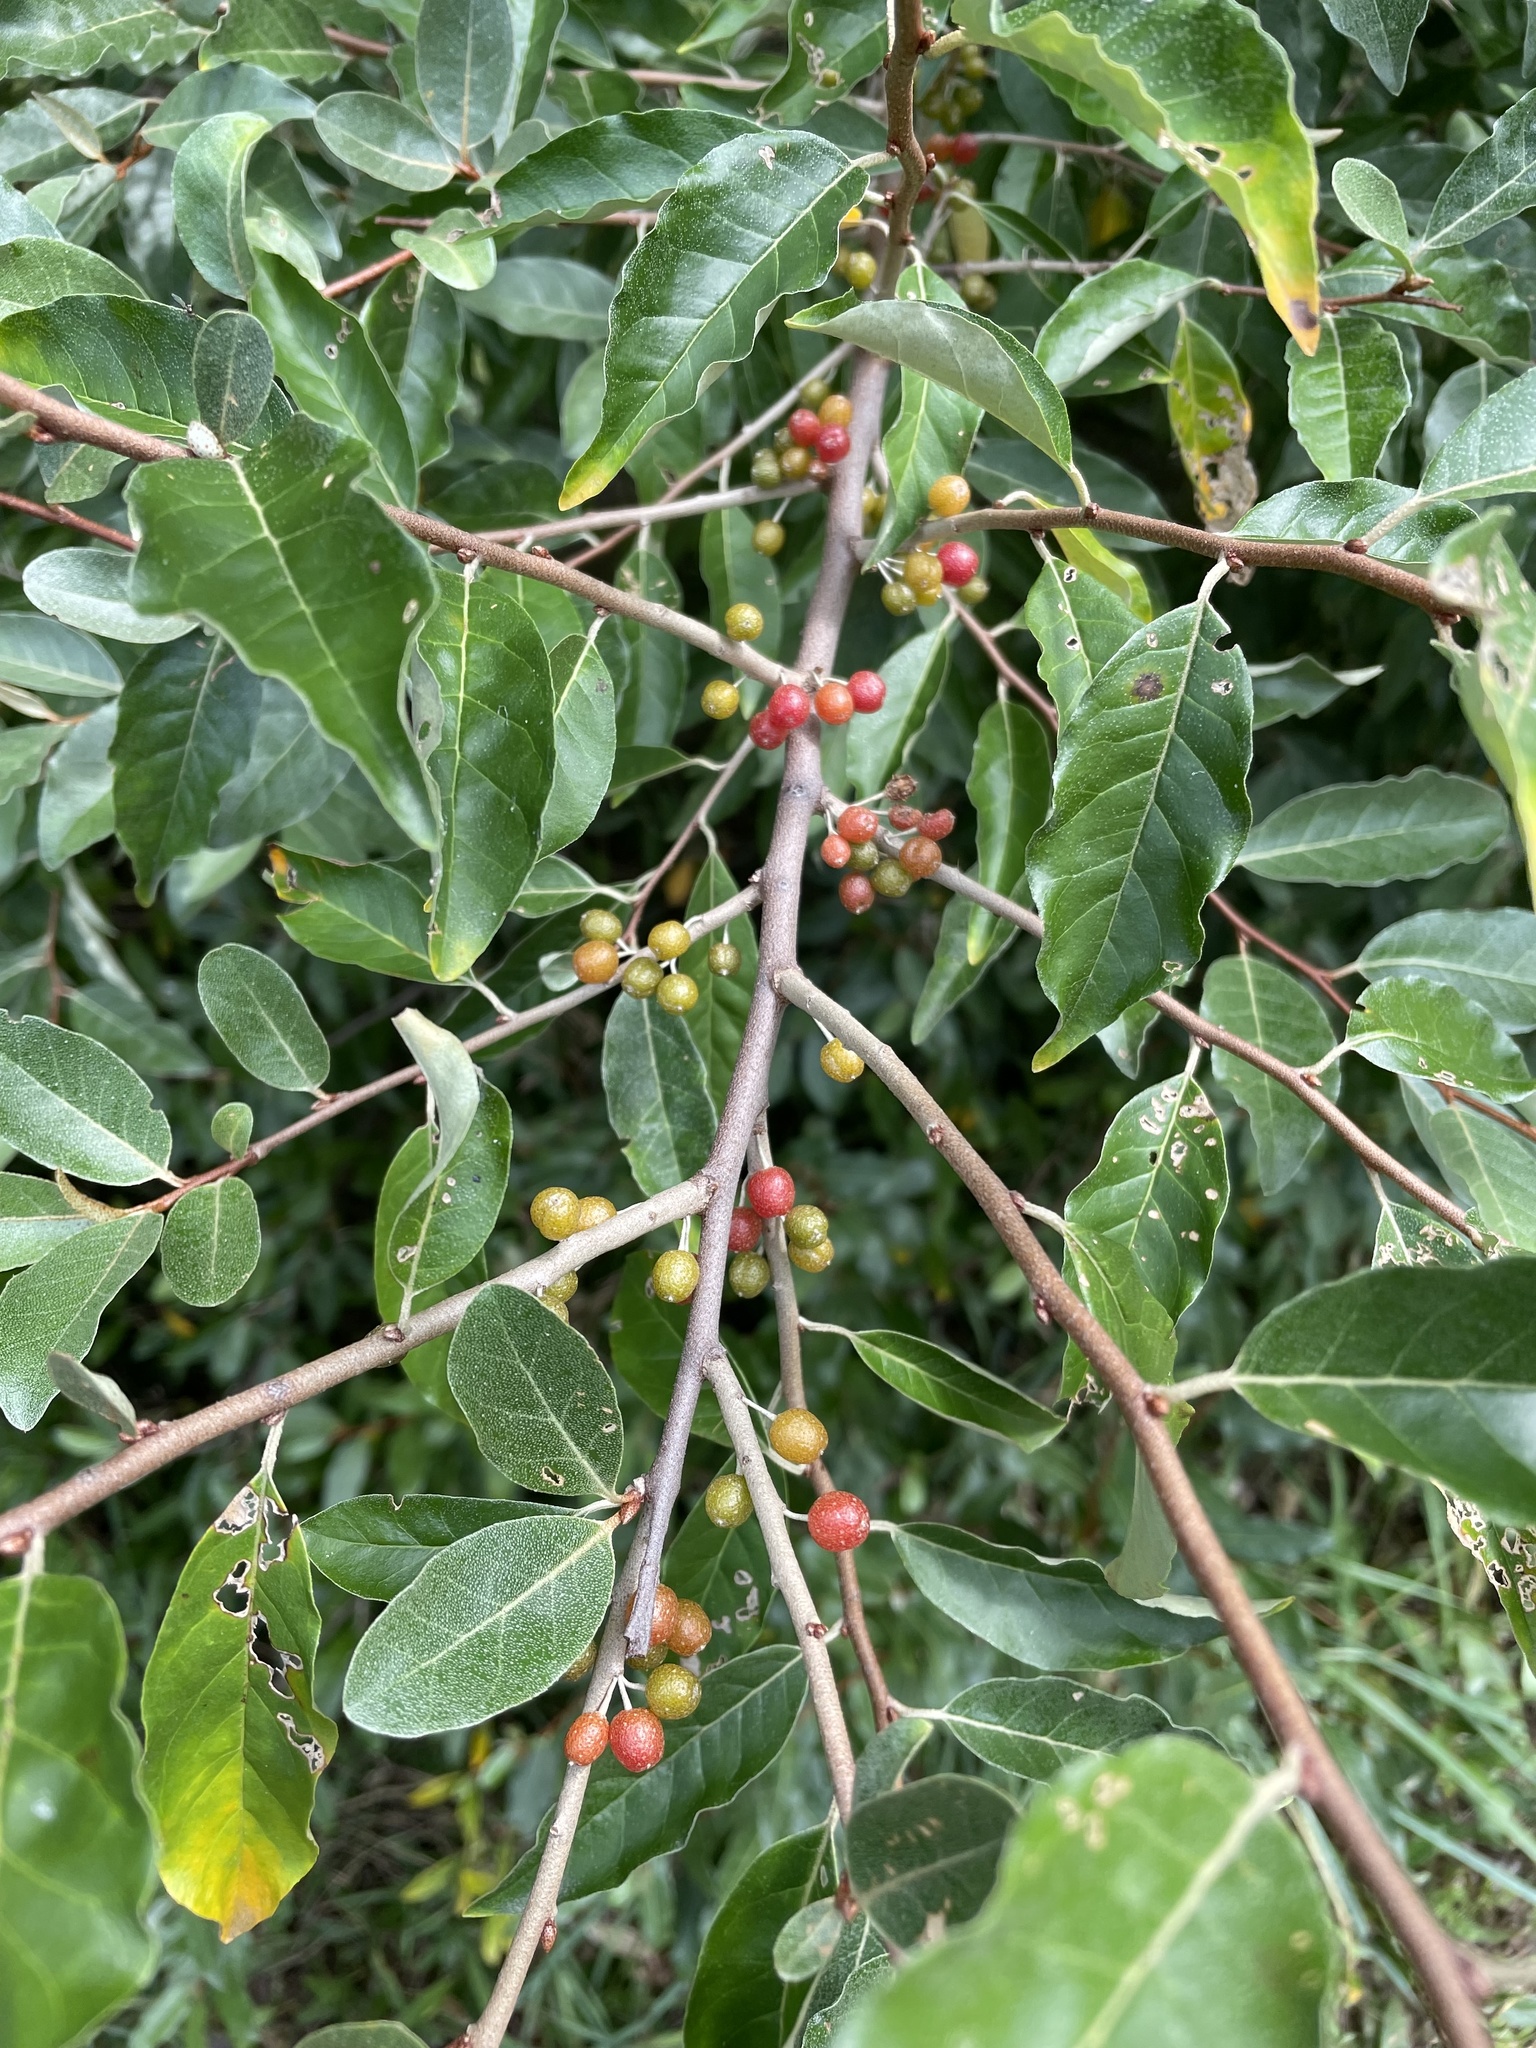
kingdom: Plantae
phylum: Tracheophyta
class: Magnoliopsida
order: Rosales
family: Elaeagnaceae
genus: Elaeagnus
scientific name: Elaeagnus umbellata
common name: Autumn olive
